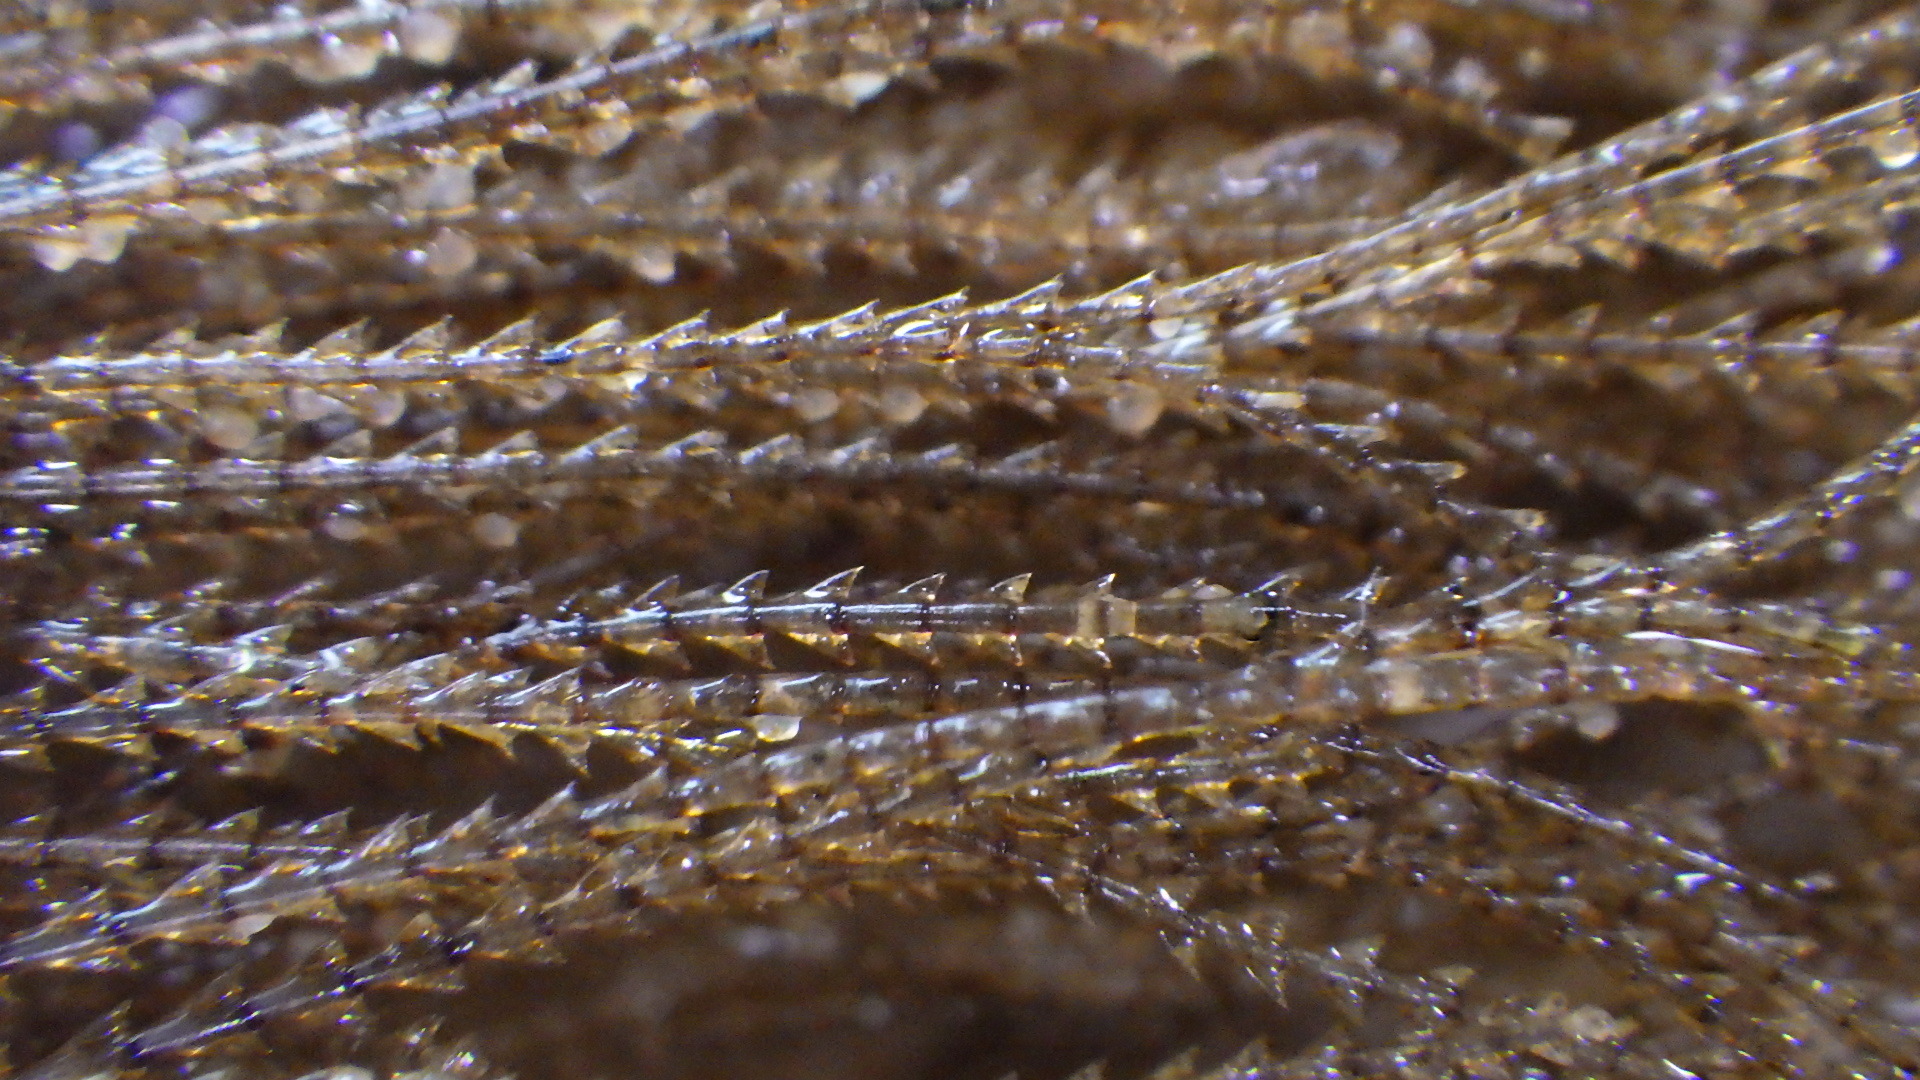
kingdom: Animalia
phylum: Cnidaria
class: Hydrozoa
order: Leptothecata
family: Sertulariidae
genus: Amphisbetia
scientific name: Amphisbetia bispinosa
